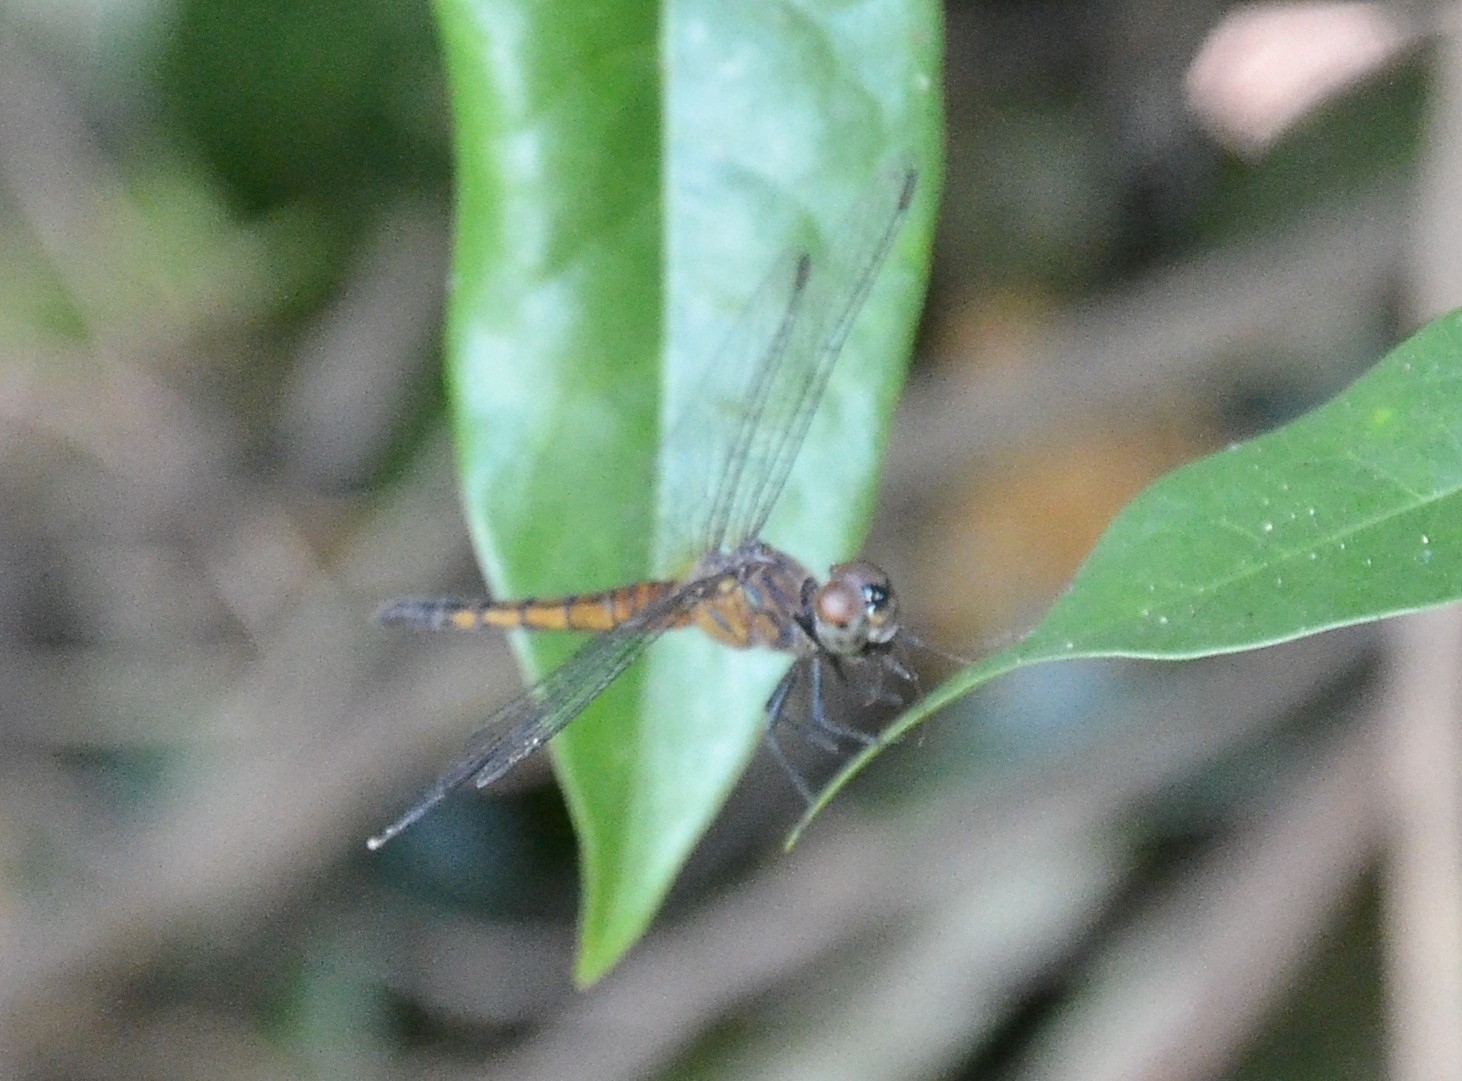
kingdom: Animalia
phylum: Arthropoda
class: Insecta
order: Odonata
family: Libellulidae
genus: Brachydiplax
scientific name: Brachydiplax chalybea
